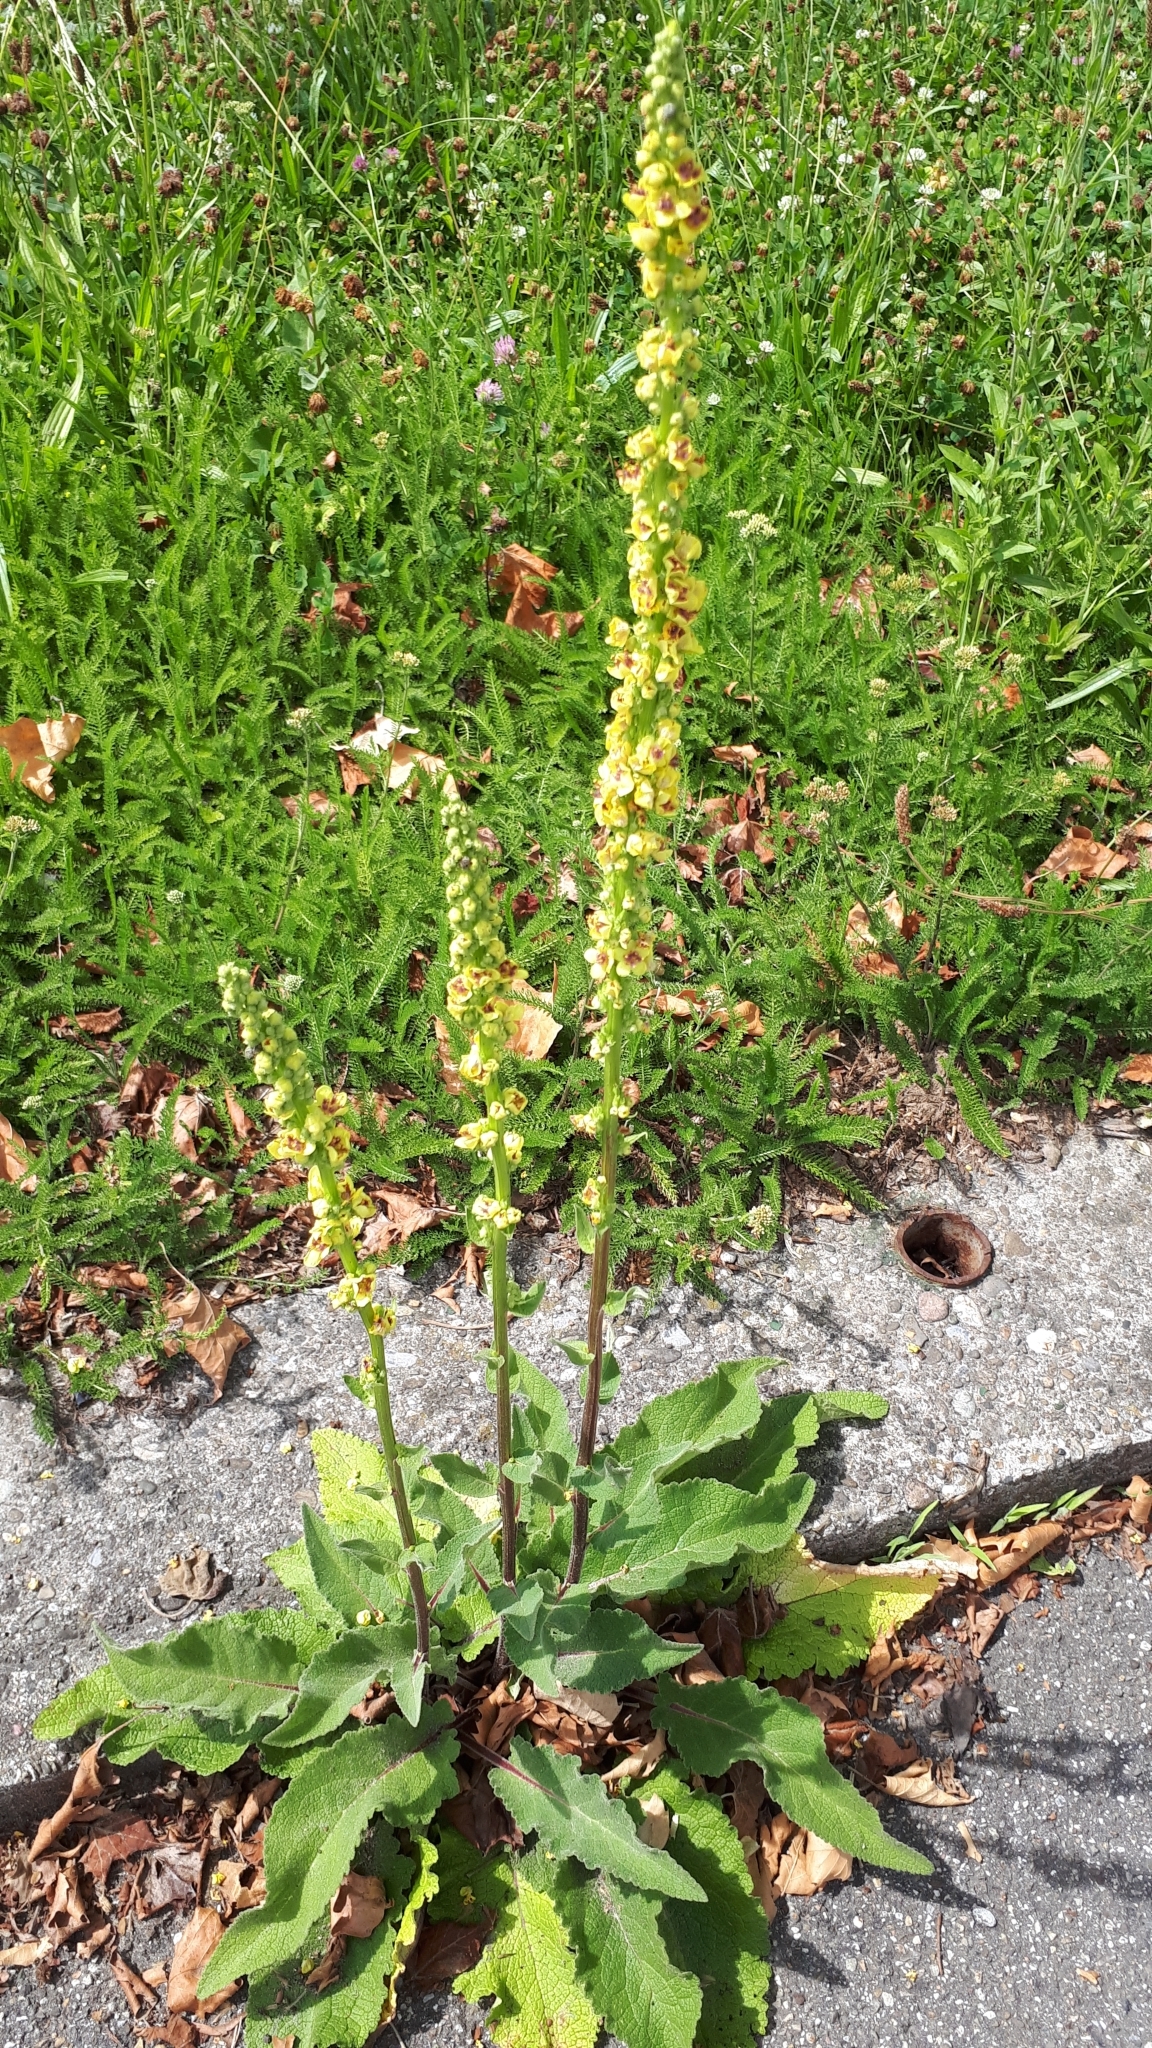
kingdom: Plantae
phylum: Tracheophyta
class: Magnoliopsida
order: Lamiales
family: Scrophulariaceae
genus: Verbascum
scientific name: Verbascum nigrum
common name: Dark mullein
